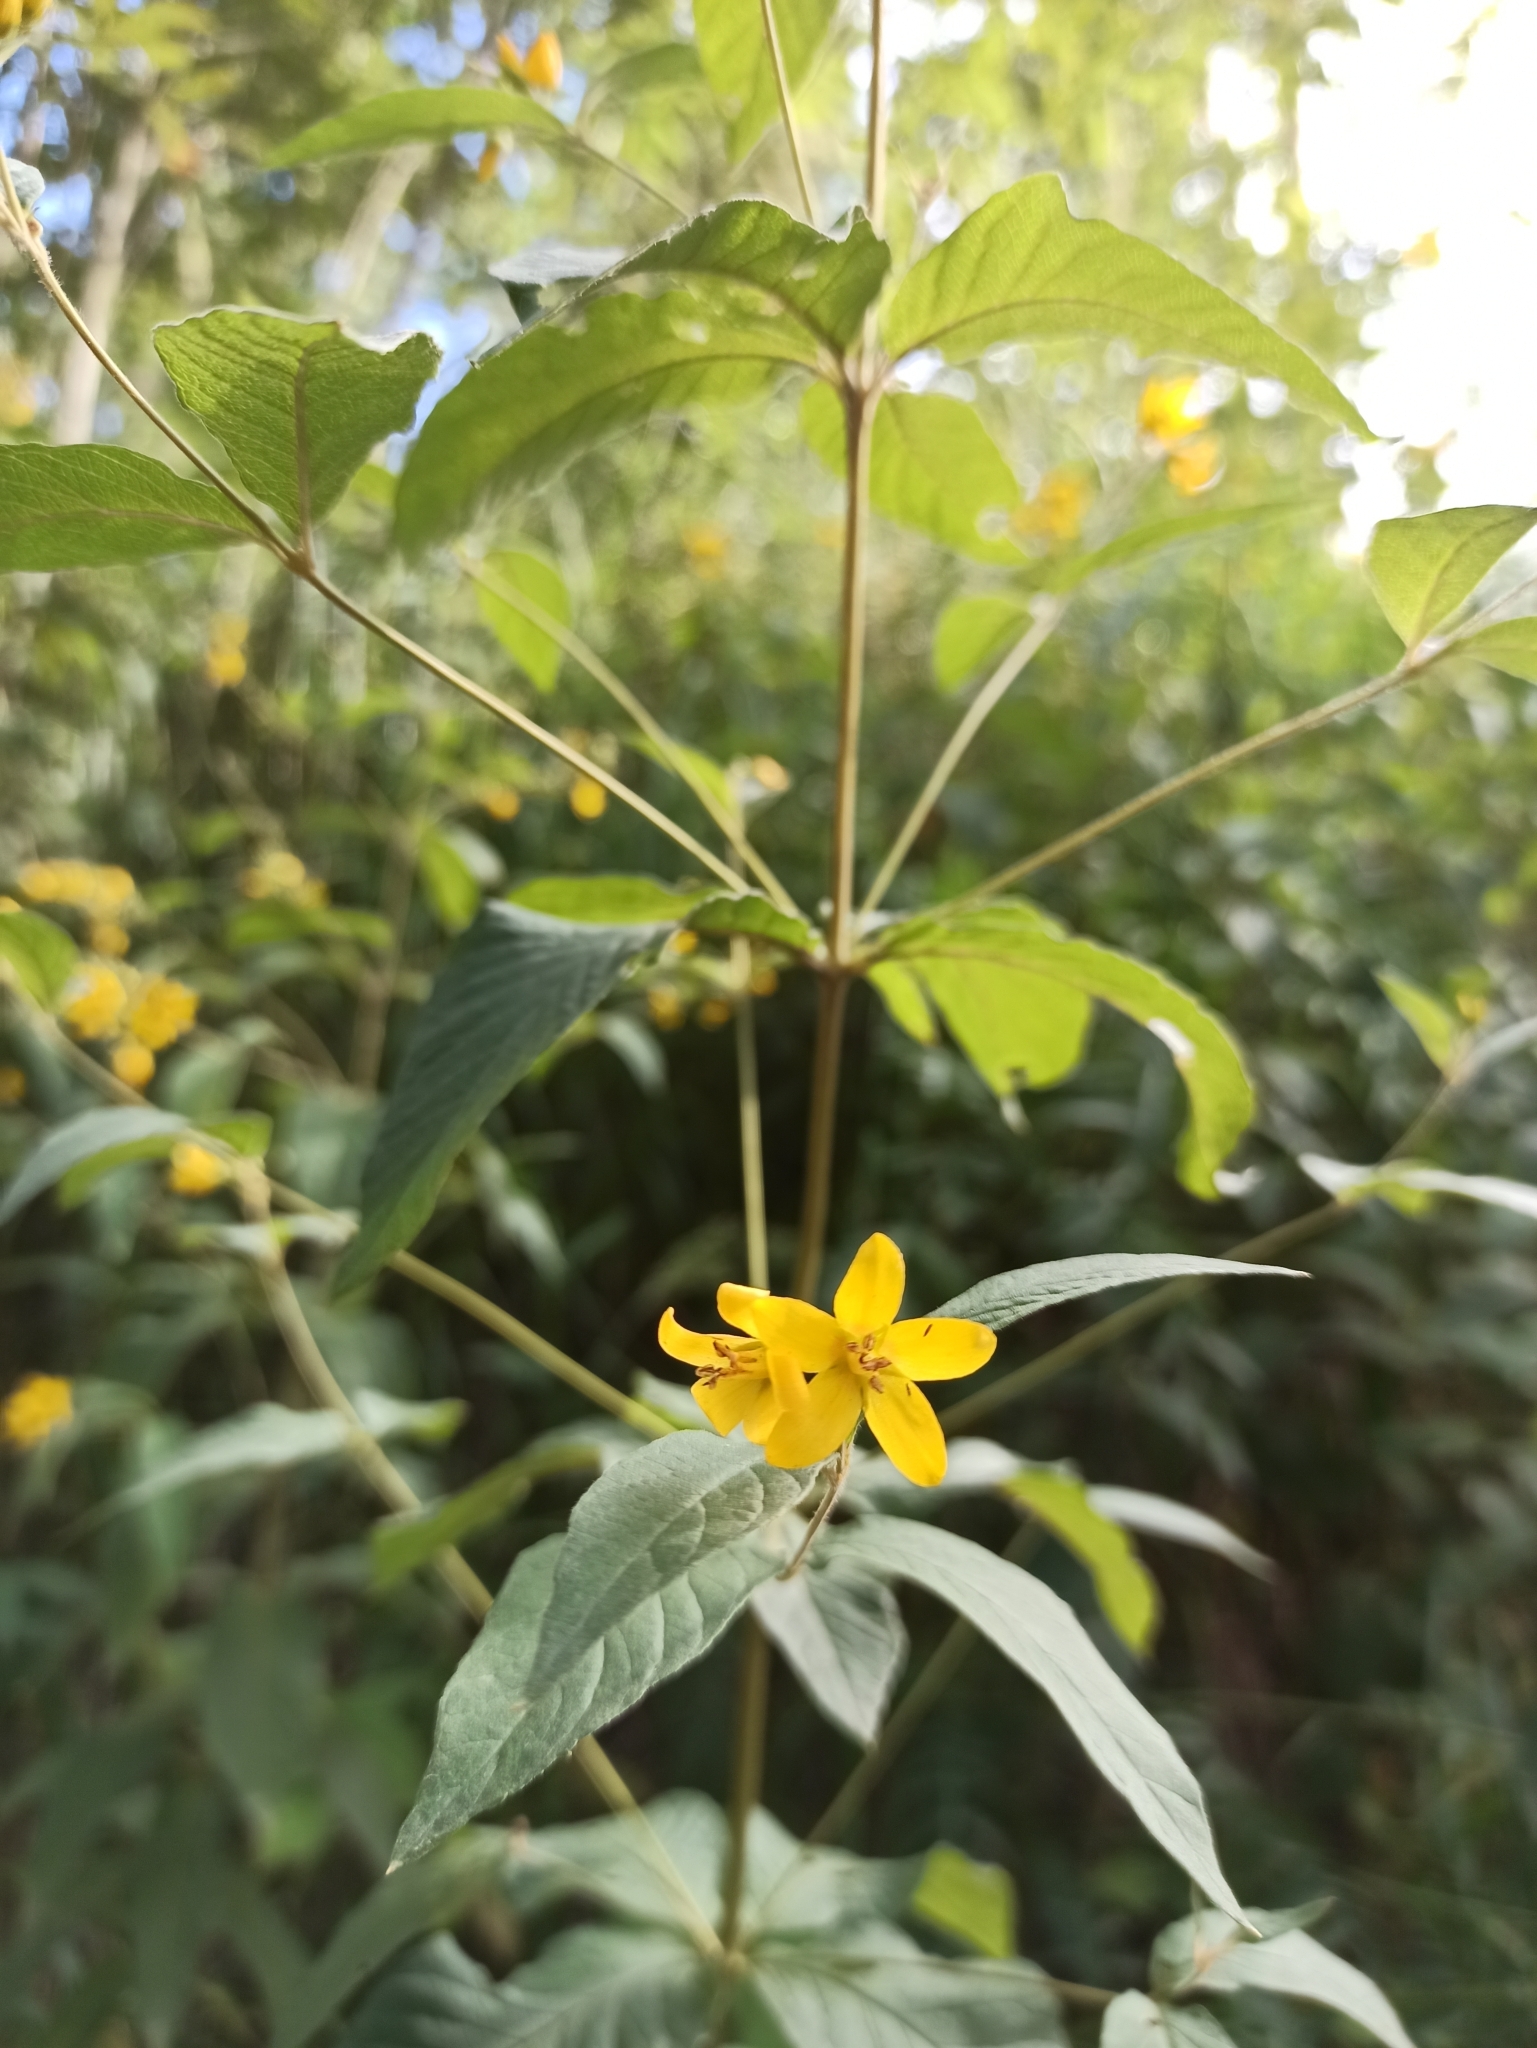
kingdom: Plantae
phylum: Tracheophyta
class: Magnoliopsida
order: Ericales
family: Primulaceae
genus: Lysimachia
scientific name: Lysimachia vulgaris
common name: Yellow loosestrife
